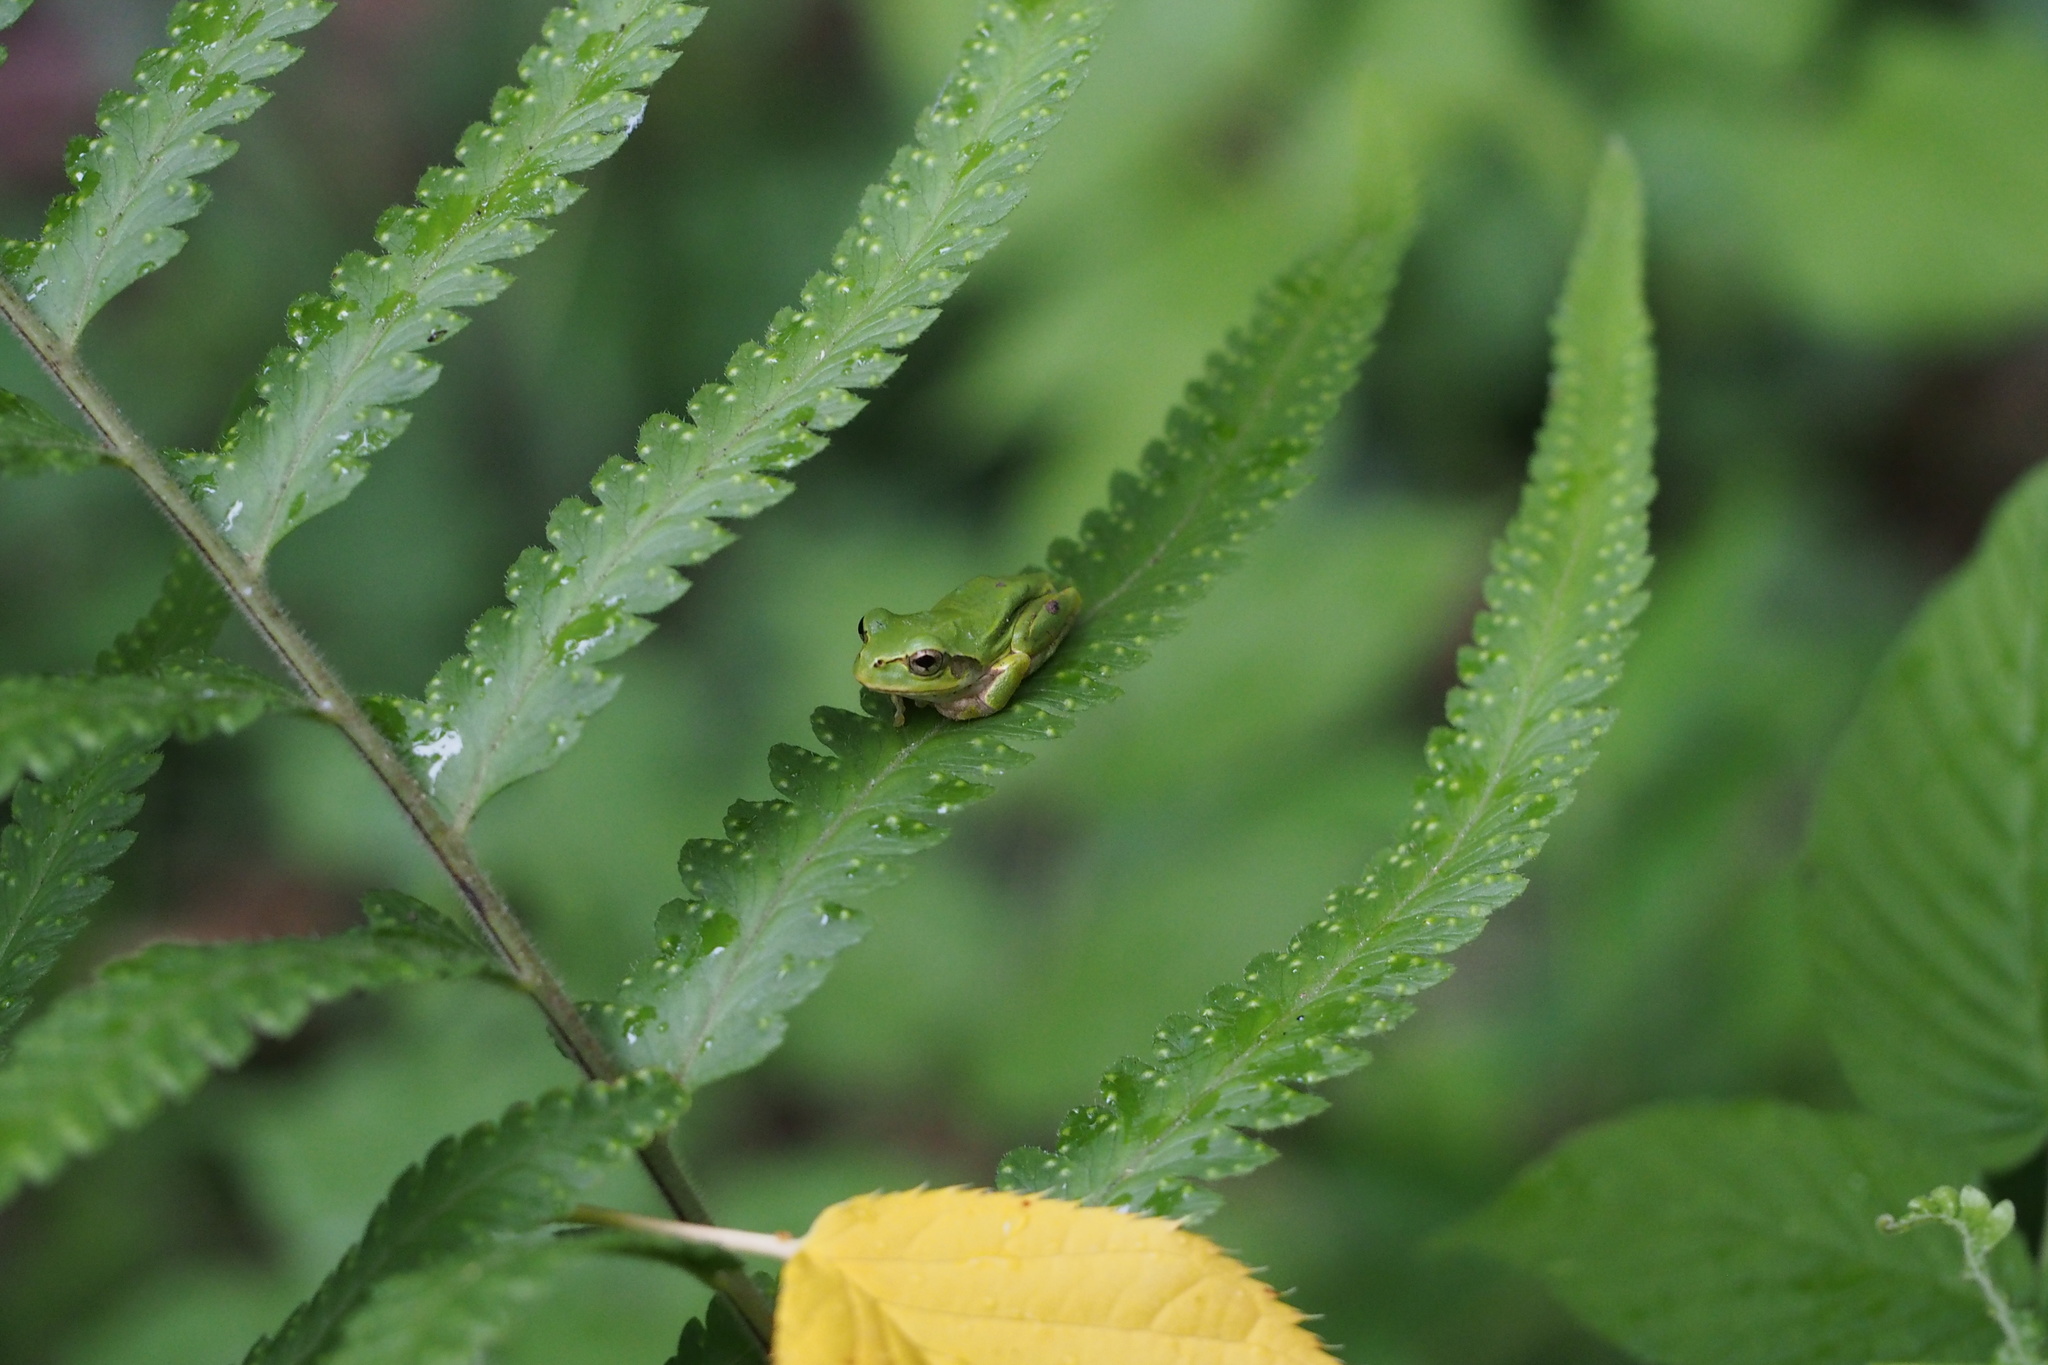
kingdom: Animalia
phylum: Chordata
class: Amphibia
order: Anura
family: Hylidae
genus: Dryophytes
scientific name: Dryophytes japonicus
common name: Japanese treefrog
